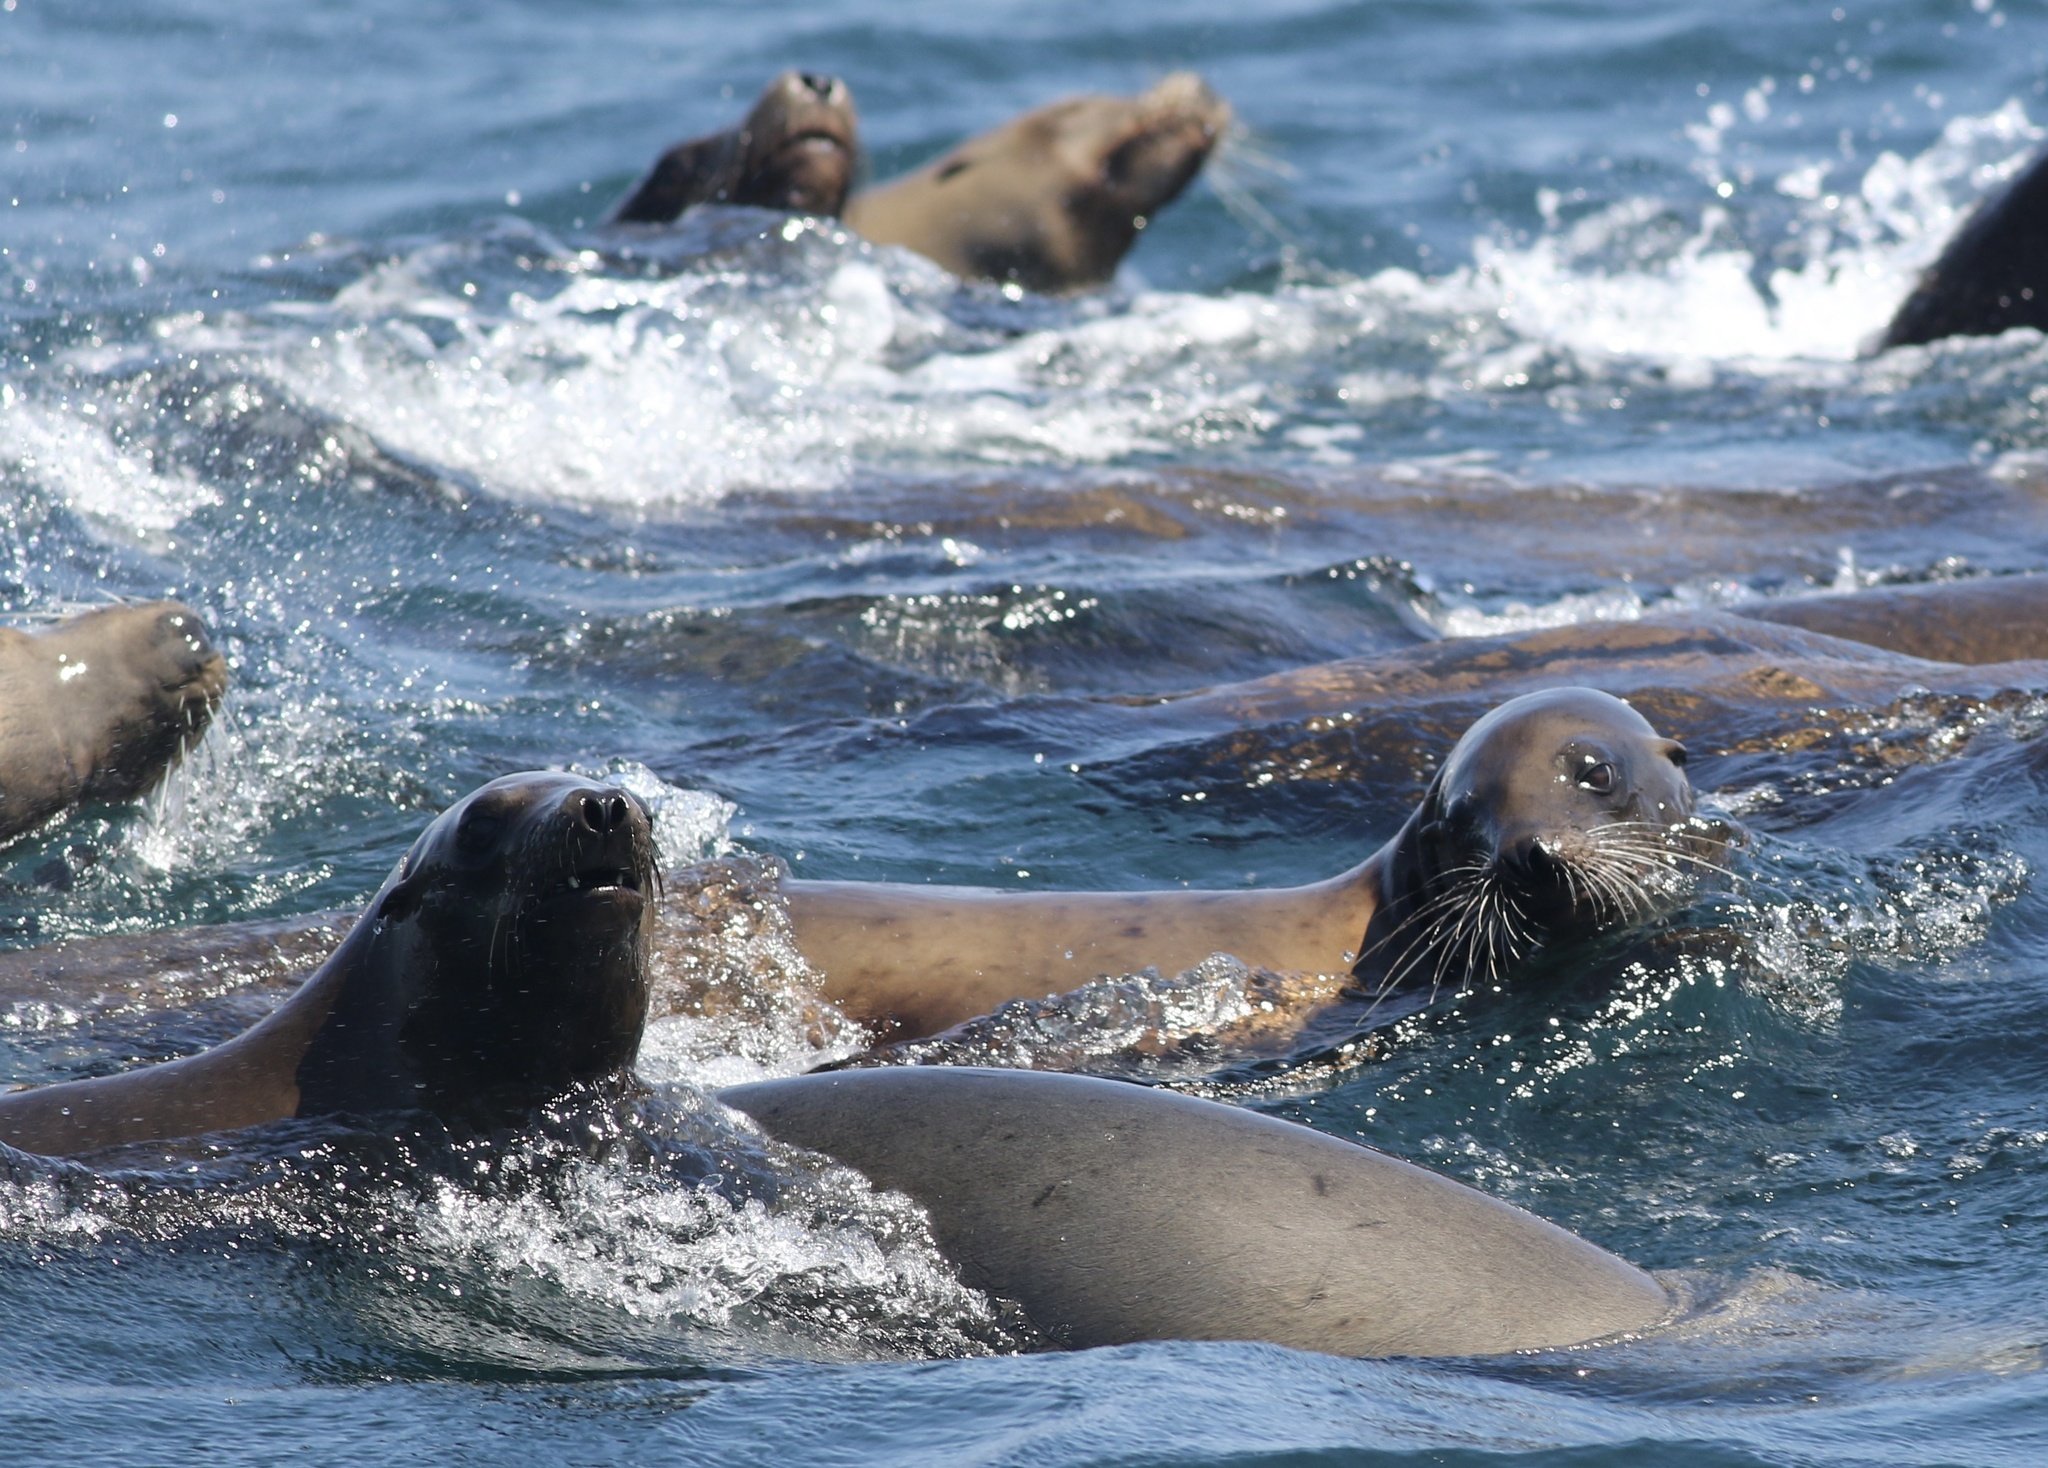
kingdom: Animalia
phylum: Chordata
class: Mammalia
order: Carnivora
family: Otariidae
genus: Zalophus
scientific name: Zalophus californianus
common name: California sea lion
